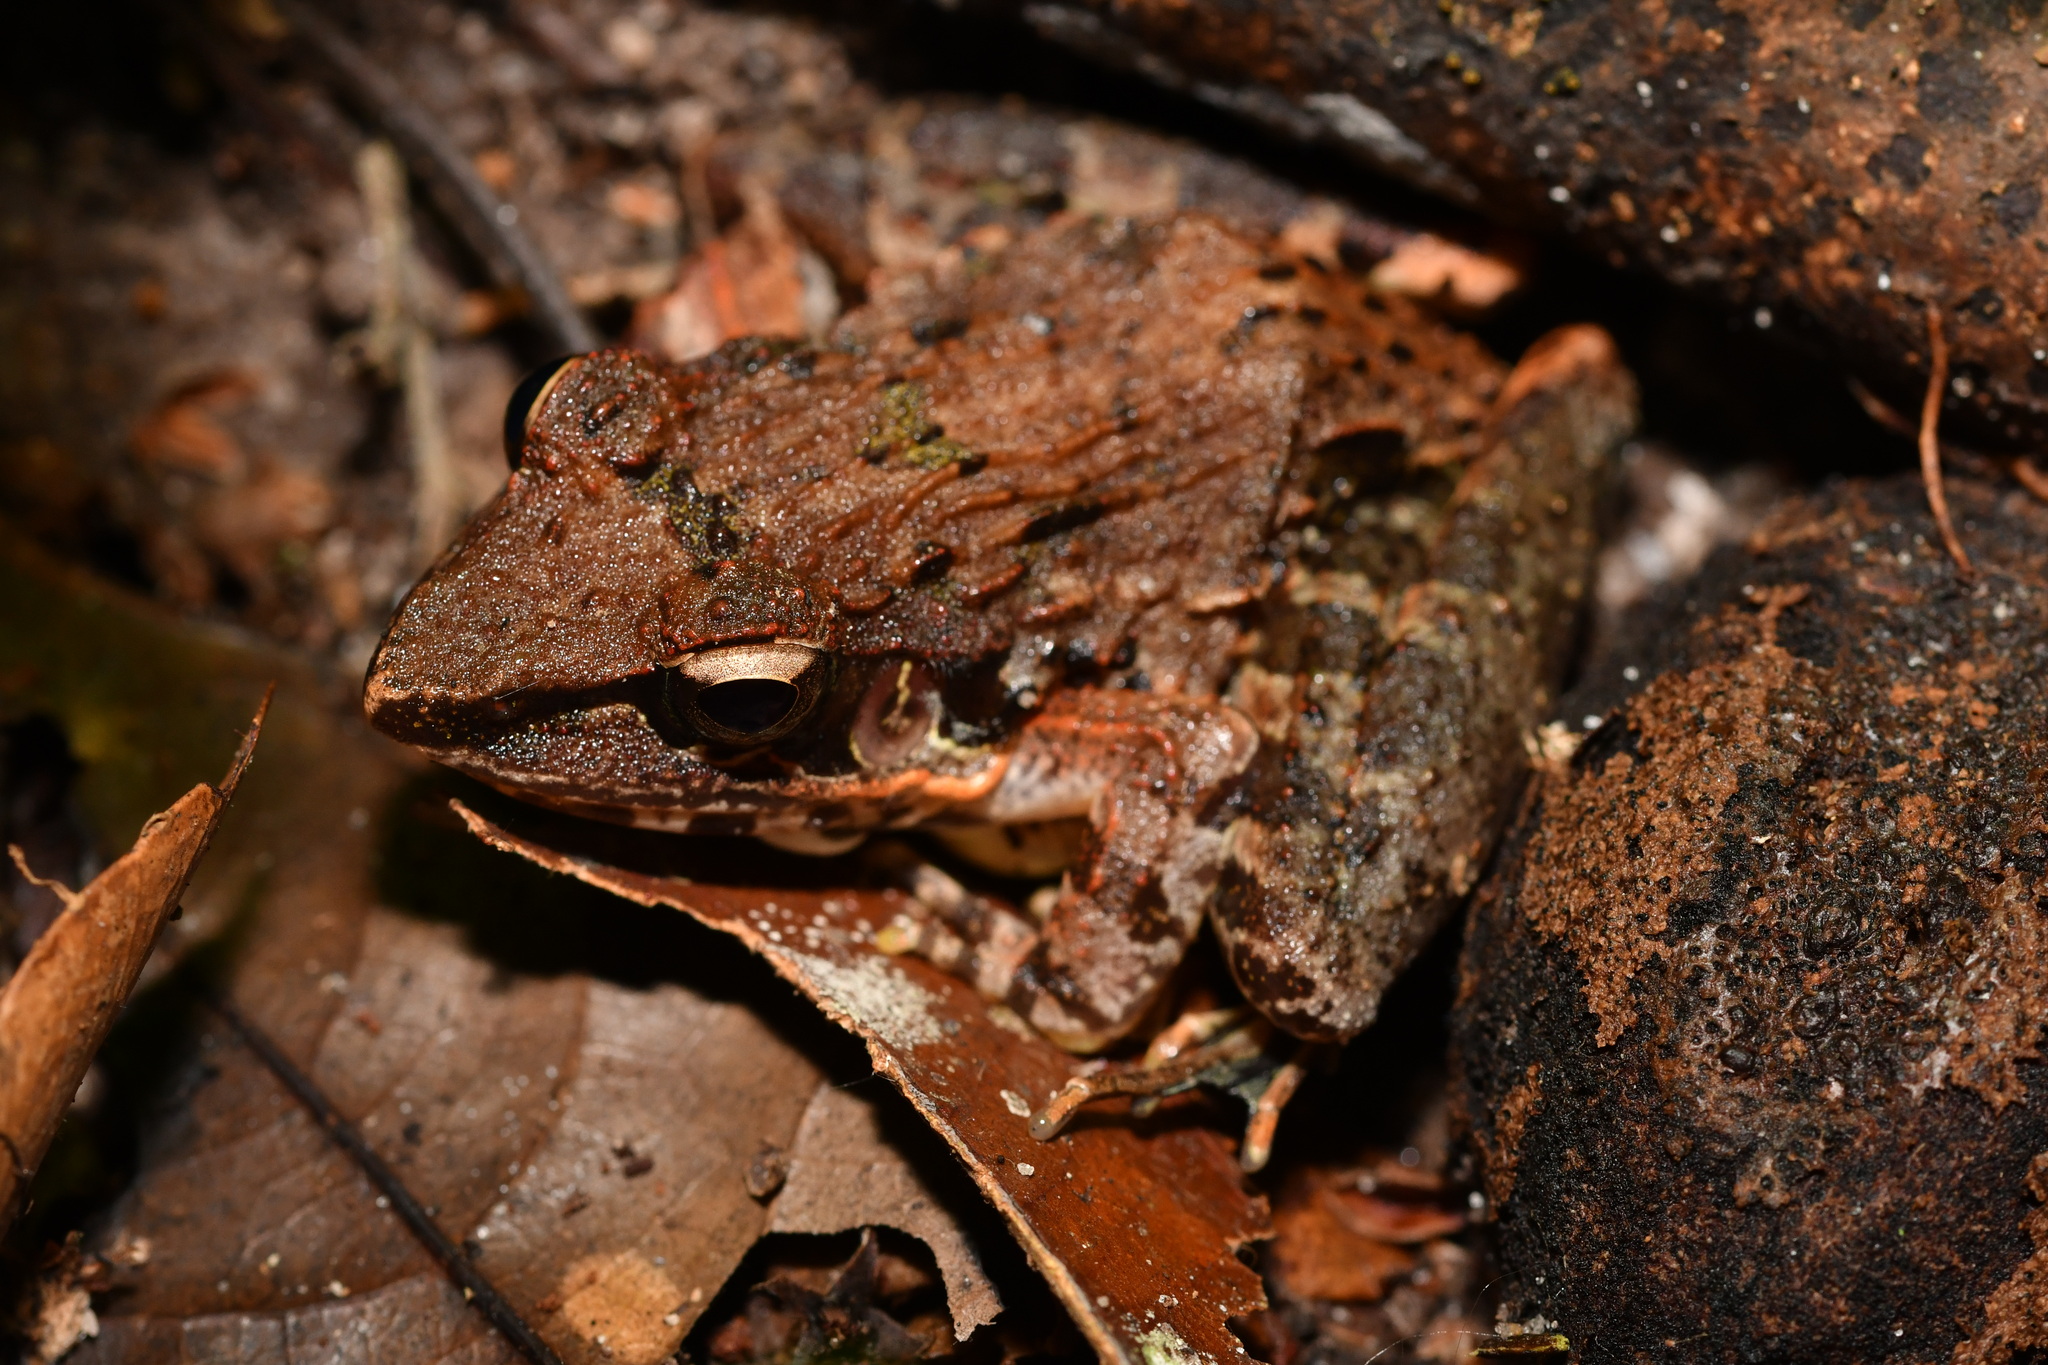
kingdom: Animalia
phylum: Chordata
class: Amphibia
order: Anura
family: Ptychadenidae
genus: Ptychadena
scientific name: Ptychadena aequiplicata
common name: Victoria grassland frog
